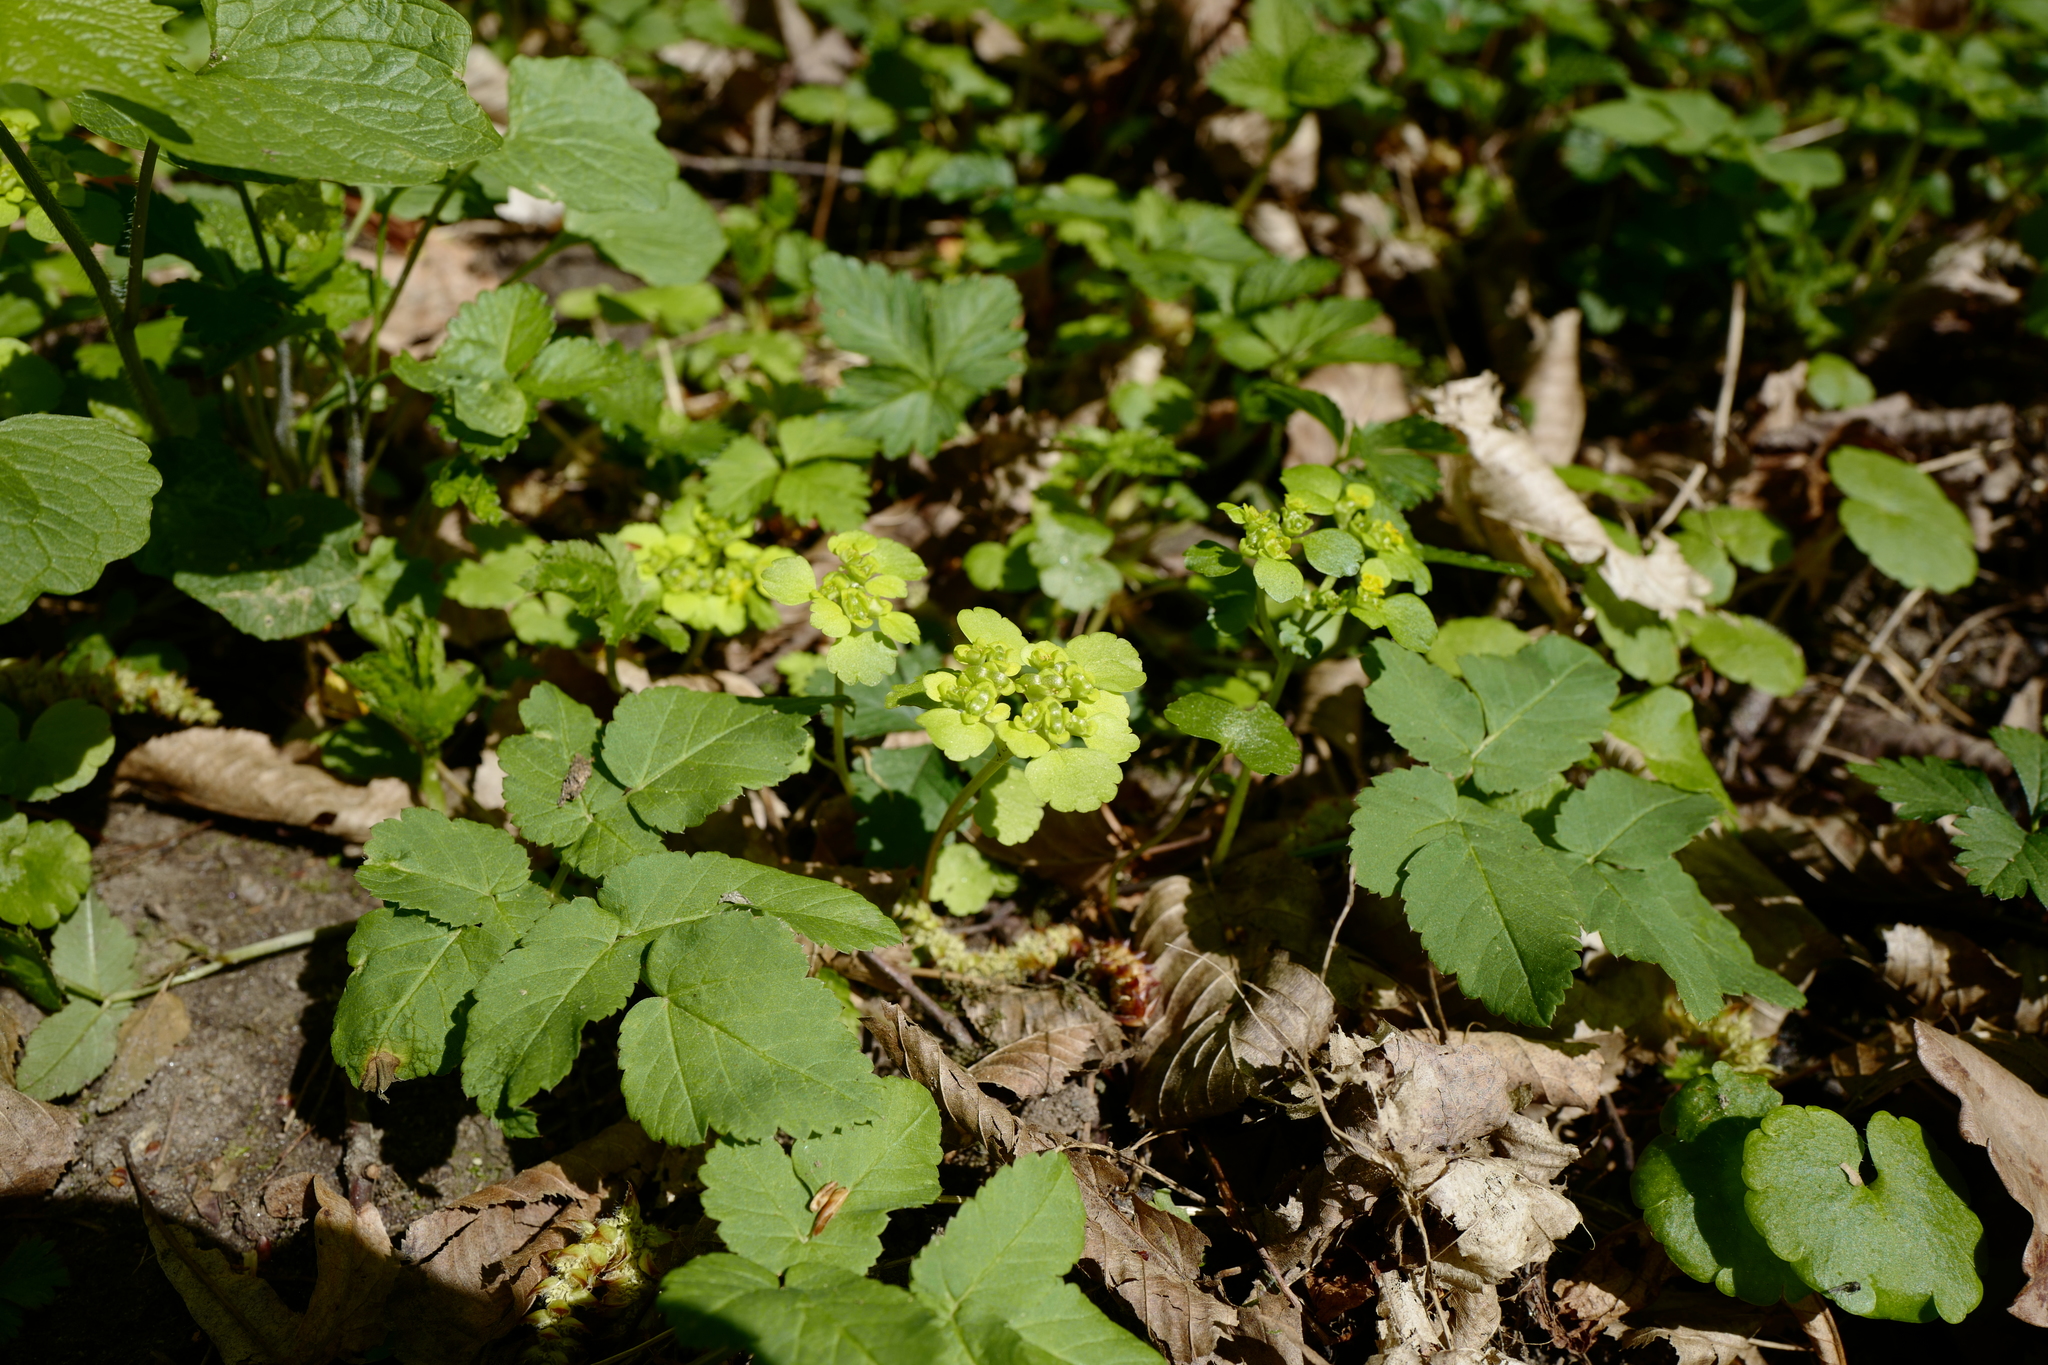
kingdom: Plantae
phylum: Tracheophyta
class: Magnoliopsida
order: Saxifragales
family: Saxifragaceae
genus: Chrysosplenium
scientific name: Chrysosplenium alternifolium
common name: Alternate-leaved golden-saxifrage
